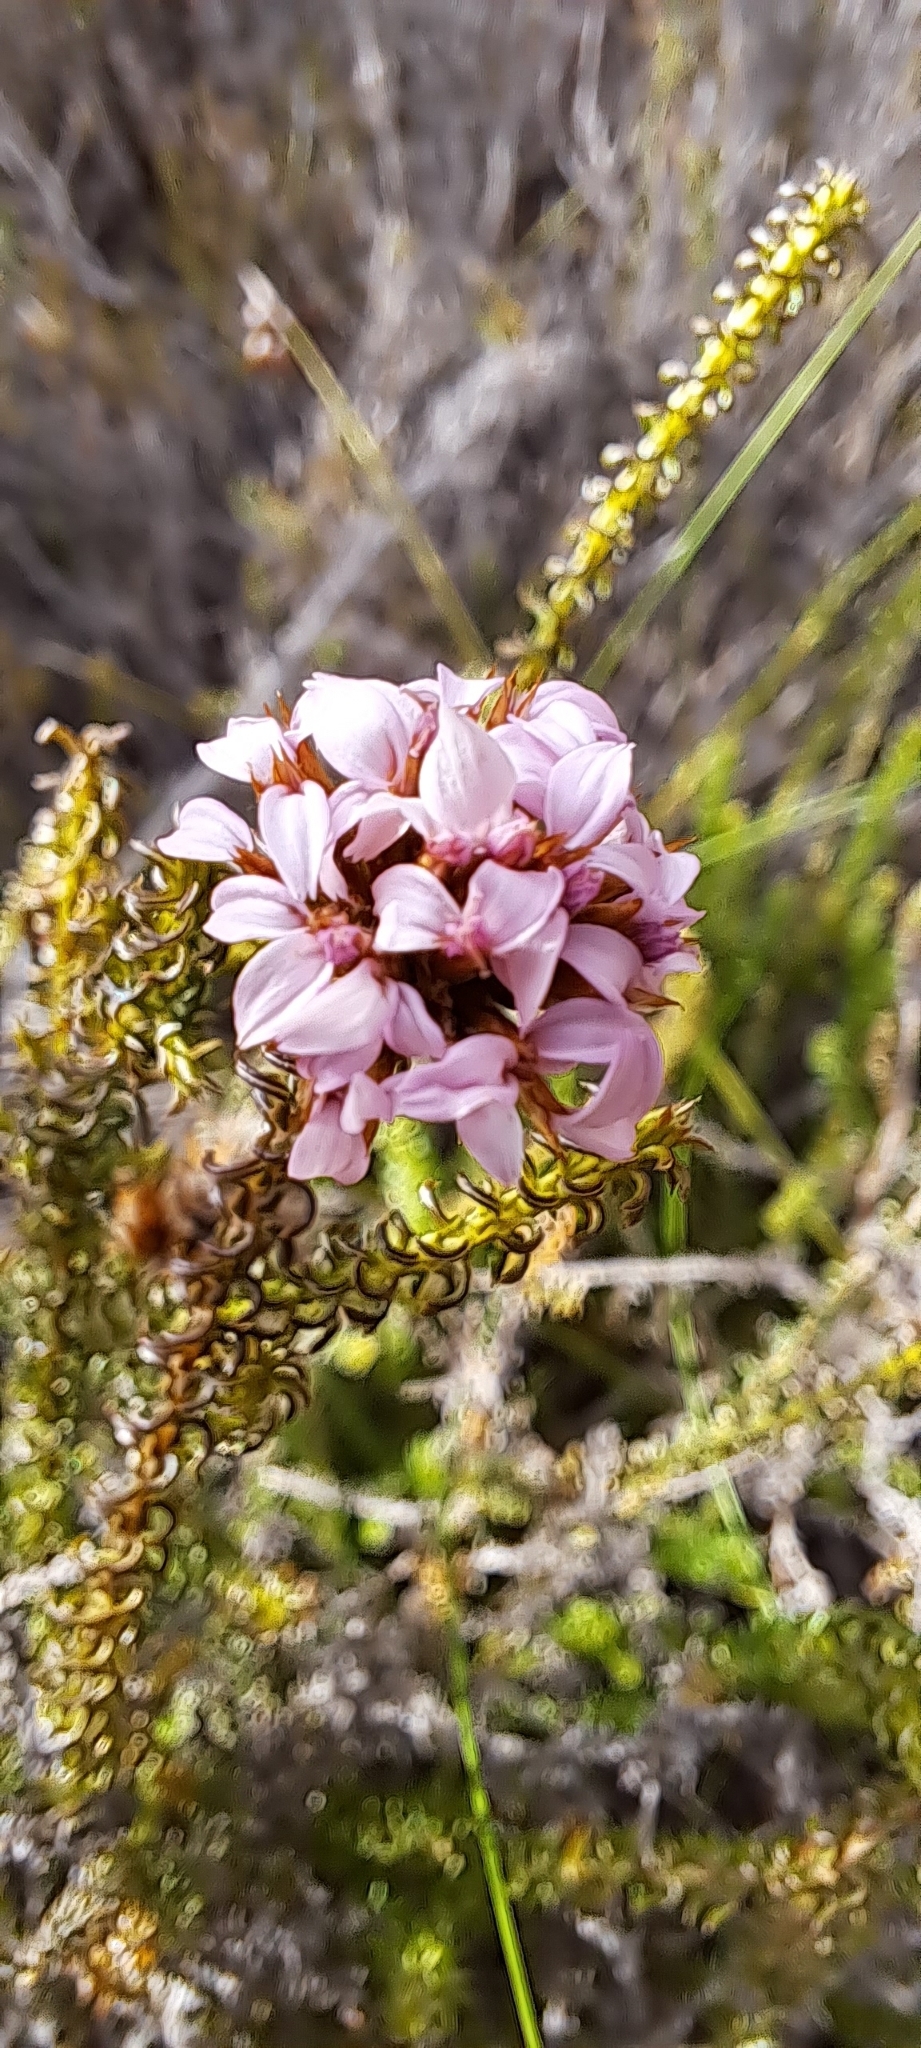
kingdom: Plantae
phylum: Tracheophyta
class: Magnoliopsida
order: Asterales
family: Asteraceae
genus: Disparago
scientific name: Disparago ericoides
